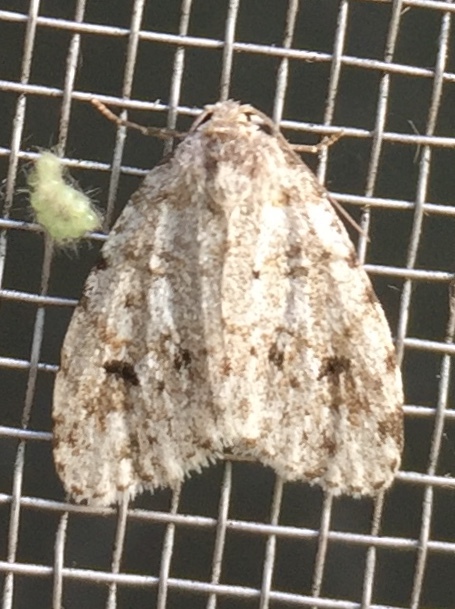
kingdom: Animalia
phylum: Arthropoda
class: Insecta
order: Lepidoptera
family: Erebidae
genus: Clemensia
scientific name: Clemensia albata
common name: Little white lichen moth
